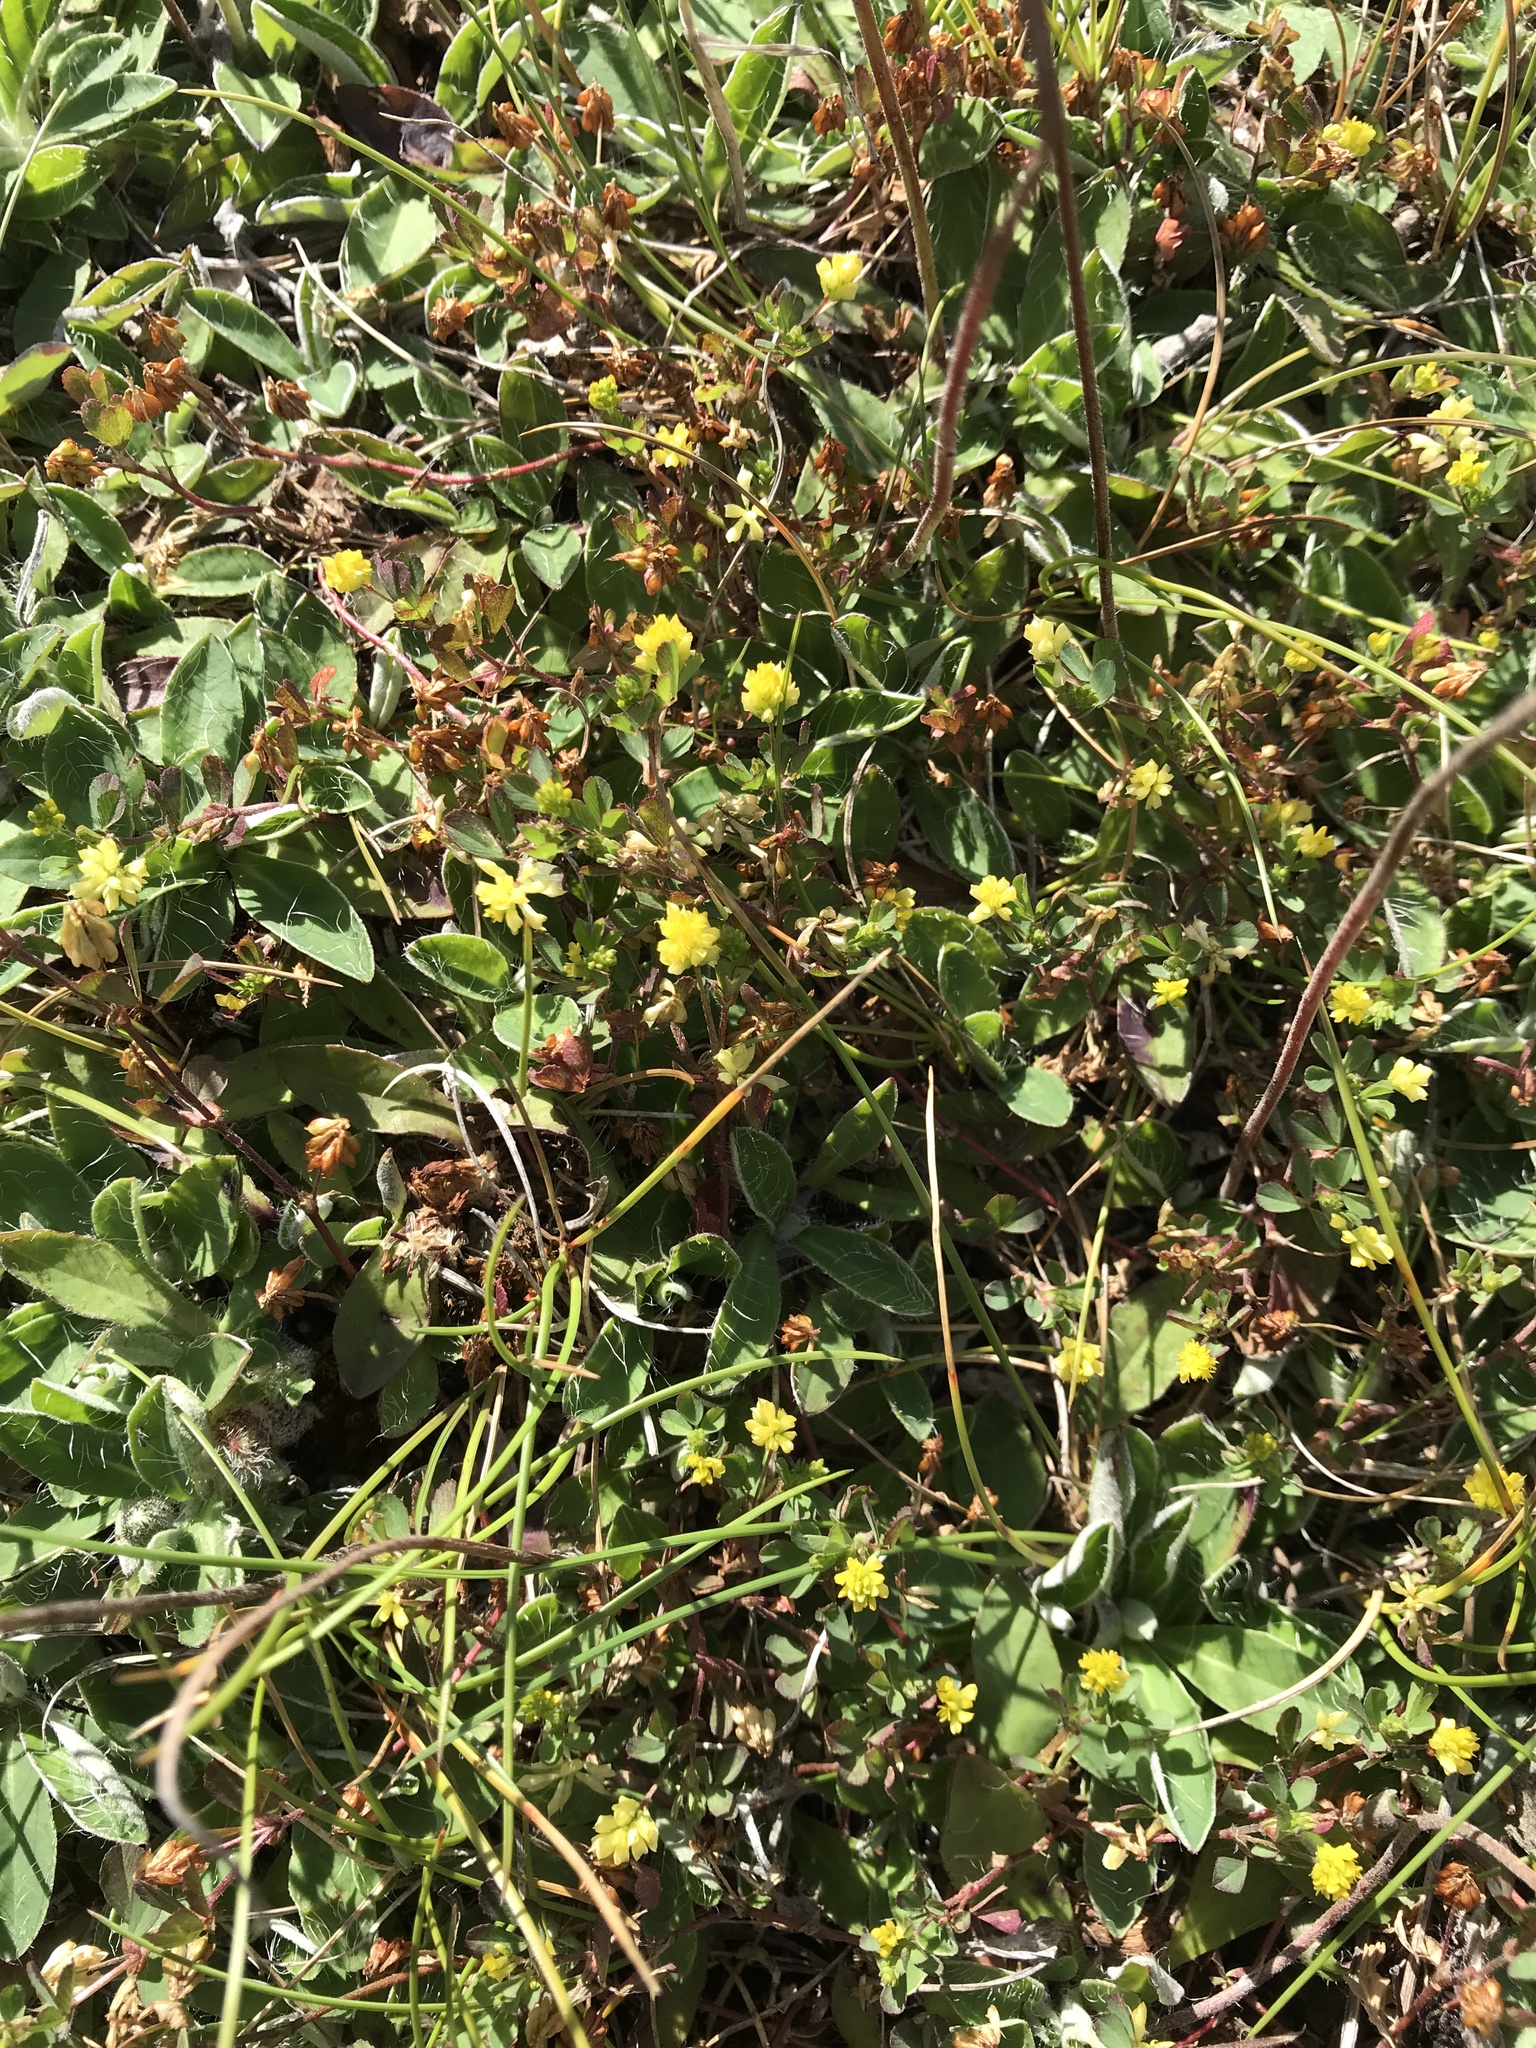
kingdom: Plantae
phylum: Tracheophyta
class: Magnoliopsida
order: Fabales
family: Fabaceae
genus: Trifolium
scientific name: Trifolium dubium
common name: Suckling clover
